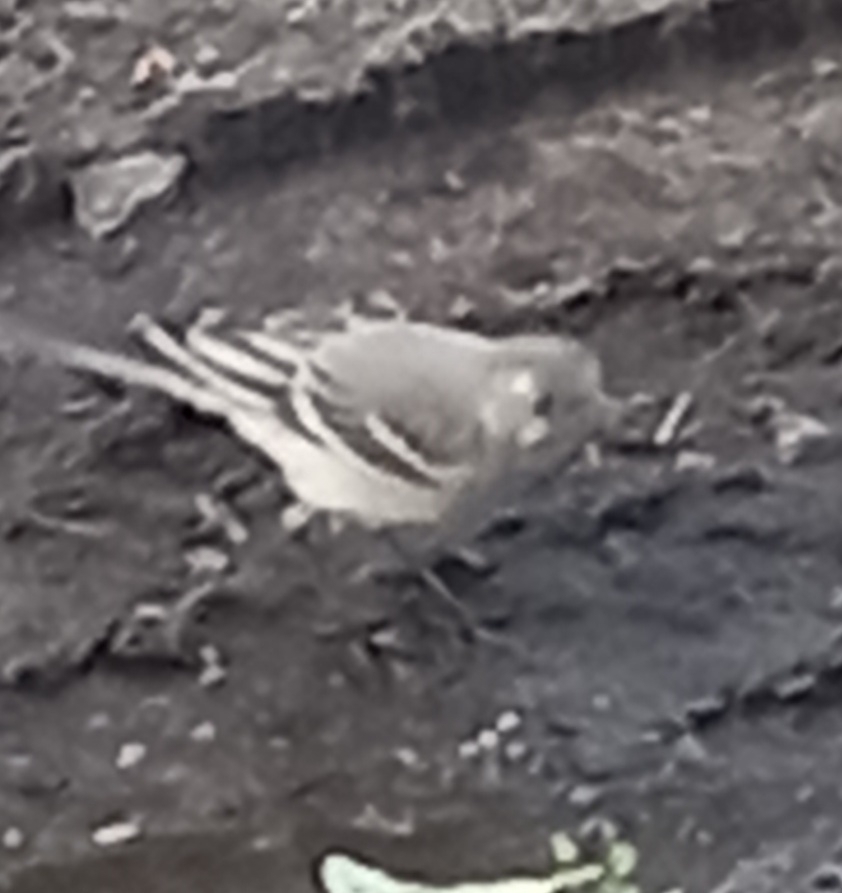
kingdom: Animalia
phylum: Chordata
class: Aves
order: Passeriformes
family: Motacillidae
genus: Motacilla
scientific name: Motacilla alba
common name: White wagtail
